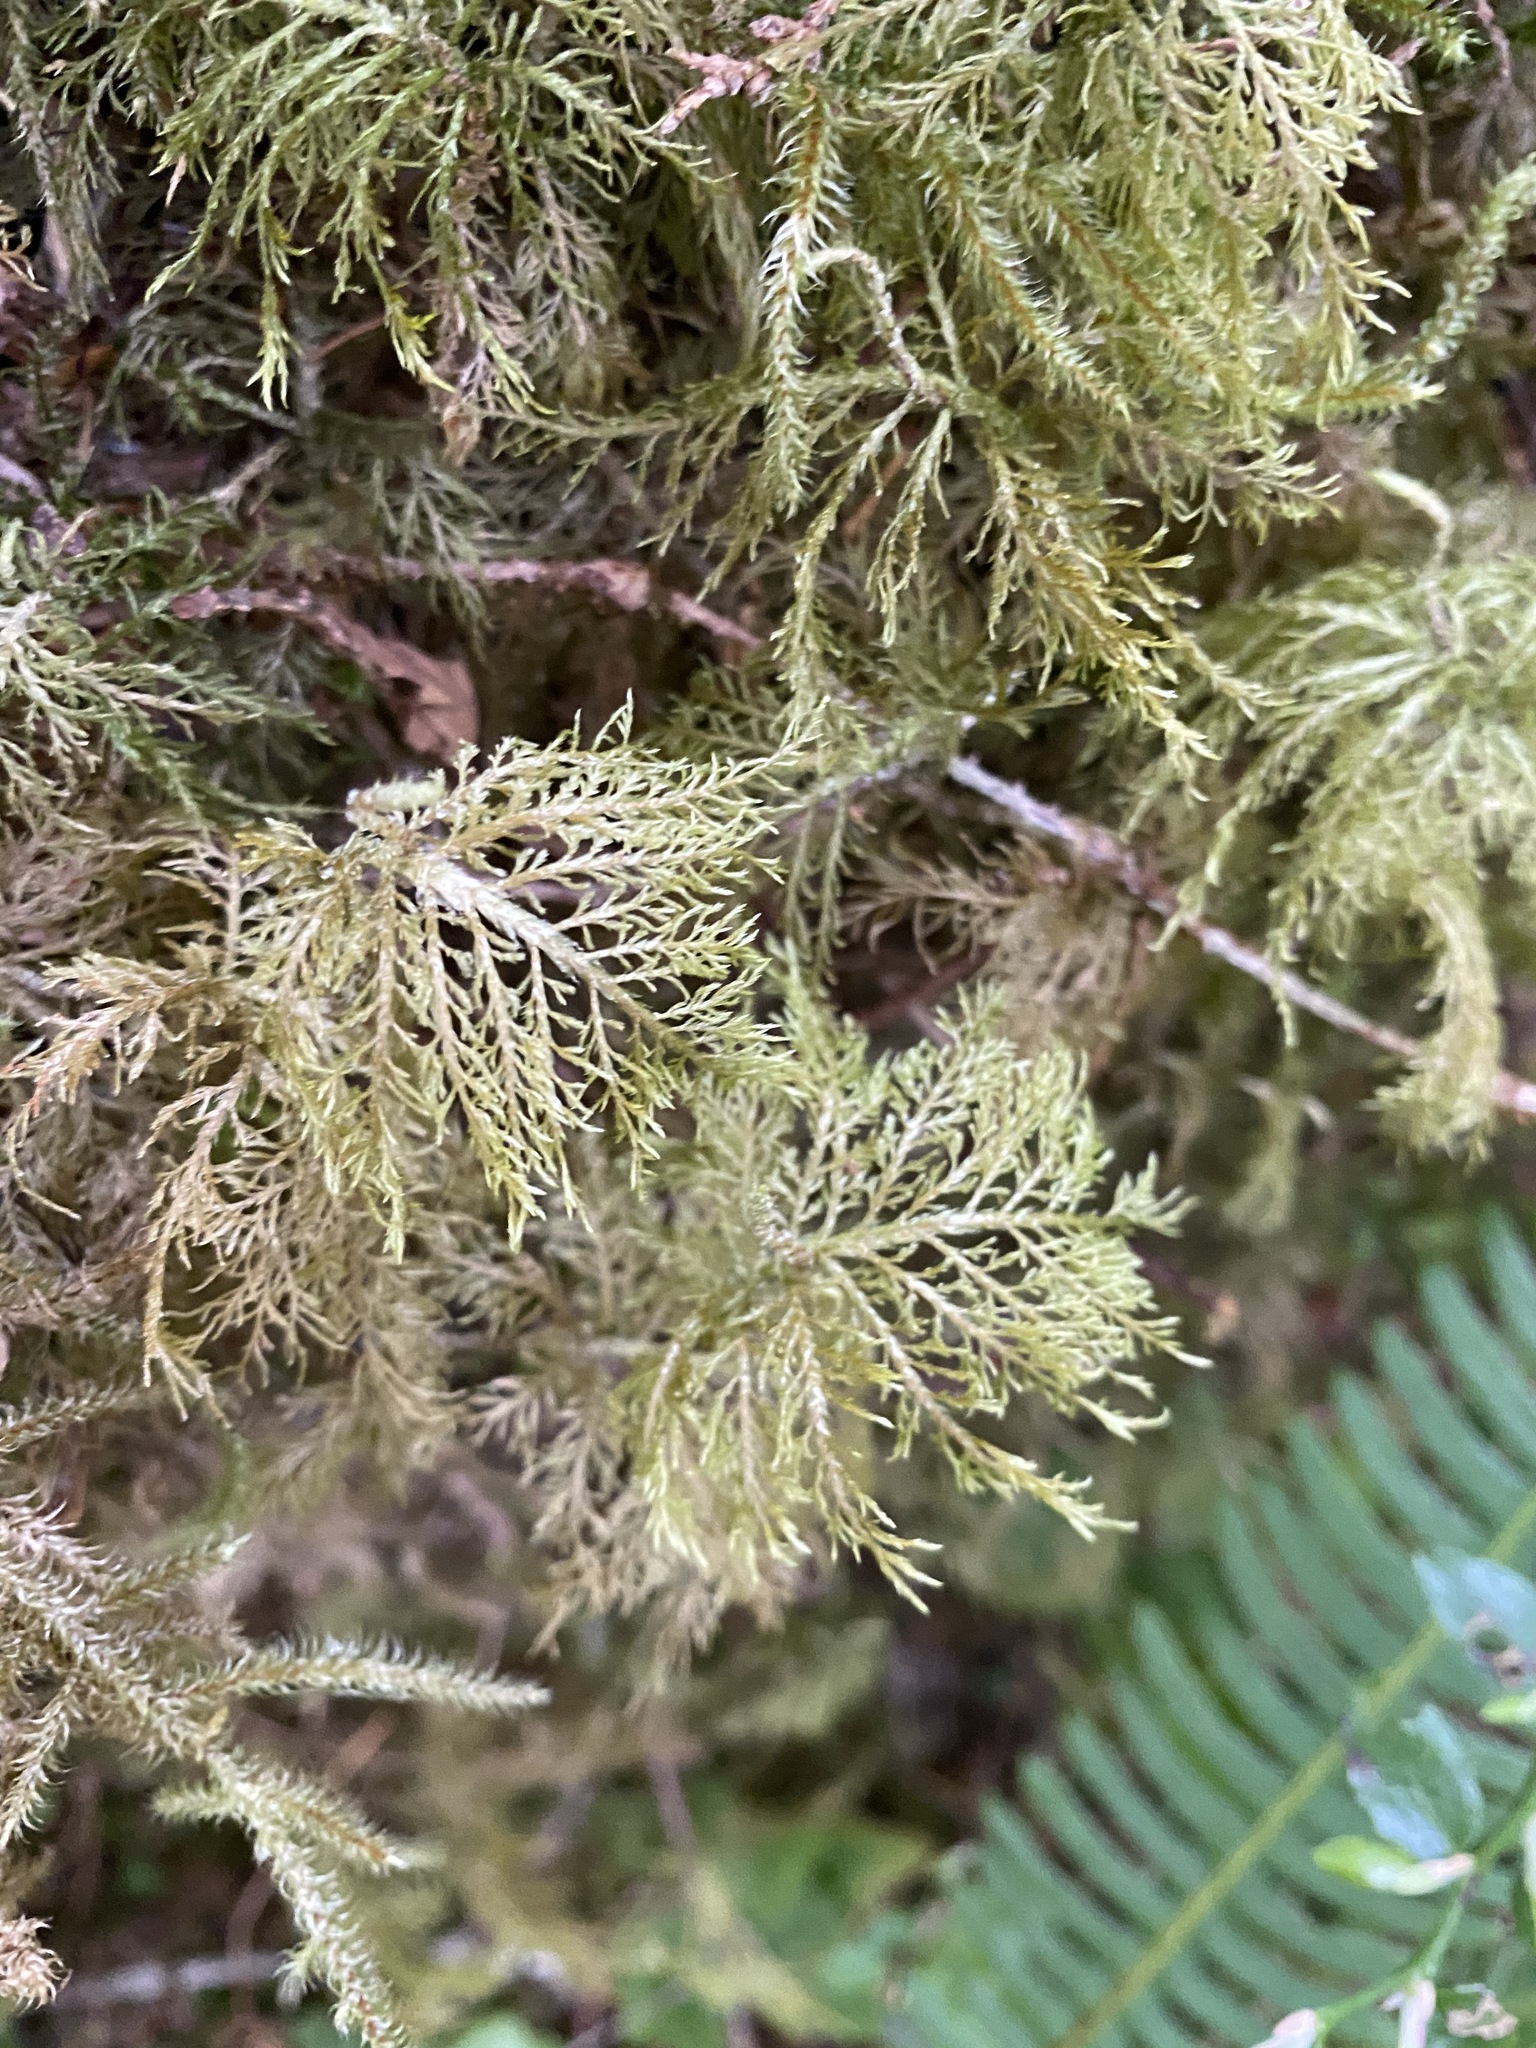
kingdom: Plantae
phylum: Bryophyta
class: Bryopsida
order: Hypnales
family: Hylocomiaceae
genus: Hylocomium
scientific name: Hylocomium splendens
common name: Stairstep moss
